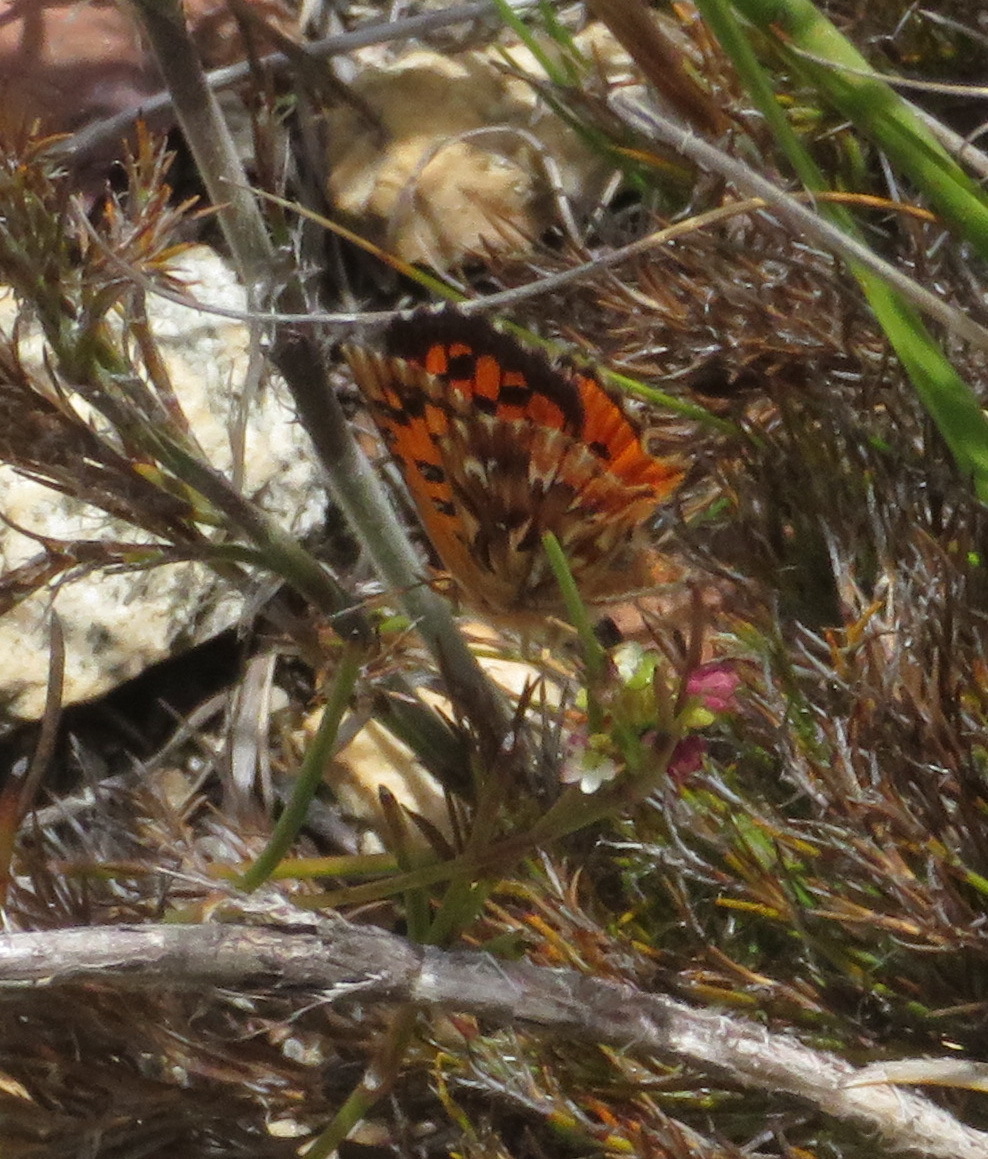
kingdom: Animalia
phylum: Arthropoda
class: Insecta
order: Lepidoptera
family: Lycaenidae
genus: Chrysoritis
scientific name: Chrysoritis pyramus
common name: Pyramus opal
